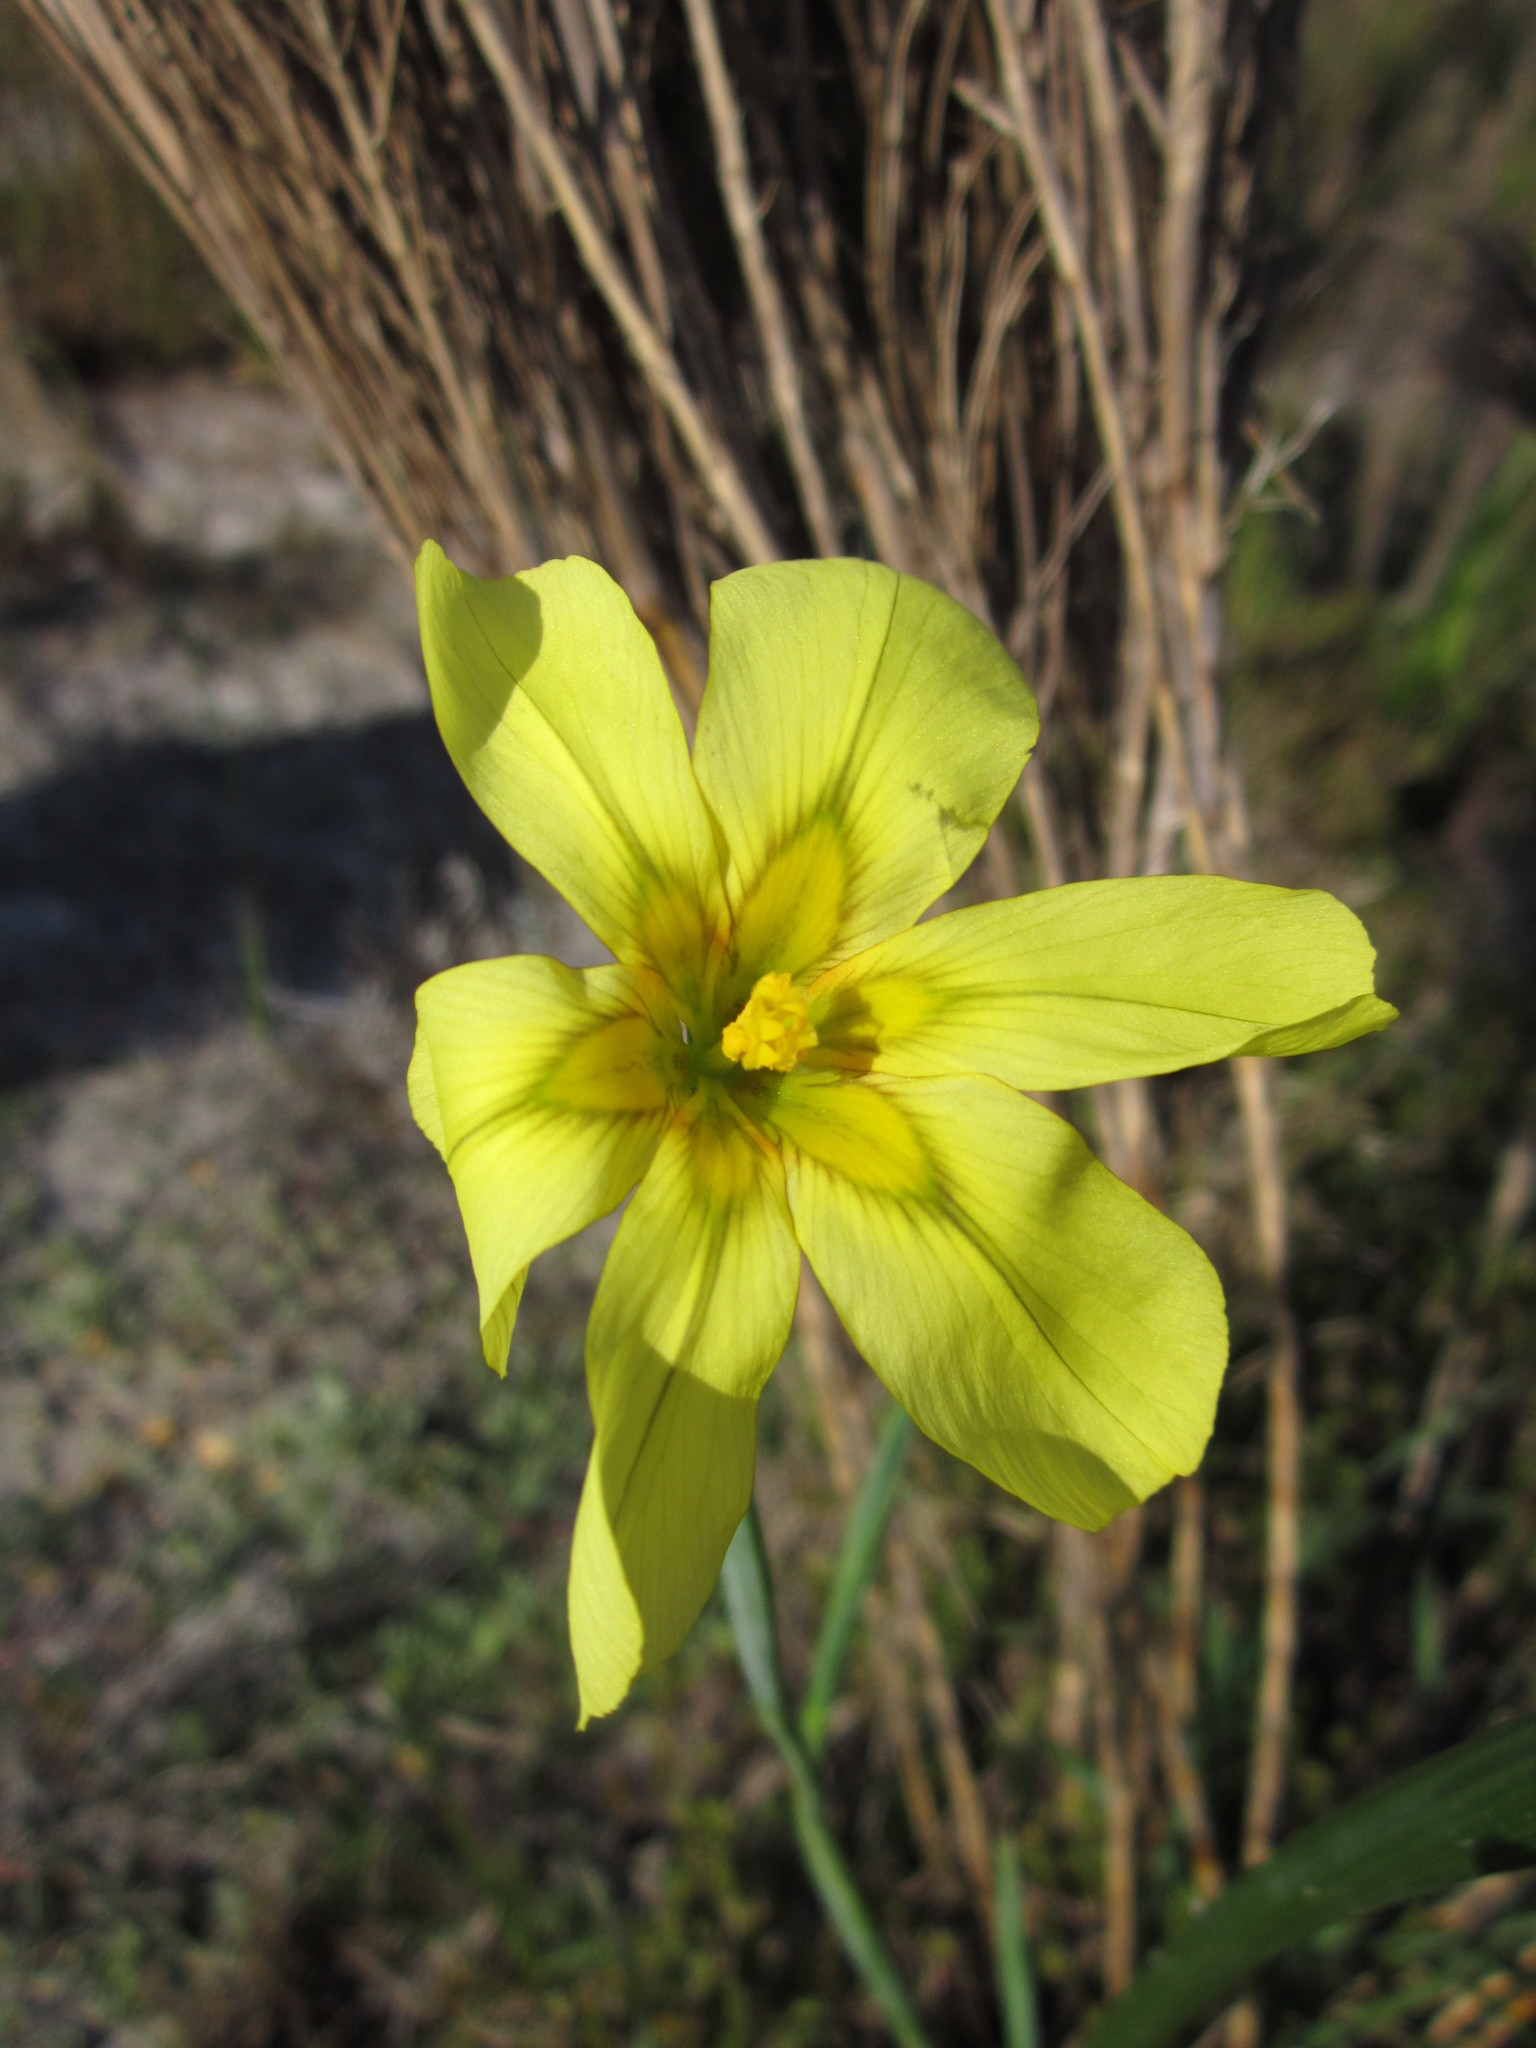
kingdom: Plantae
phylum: Tracheophyta
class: Liliopsida
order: Asparagales
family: Iridaceae
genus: Moraea
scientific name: Moraea collina
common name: Cape-tulip
